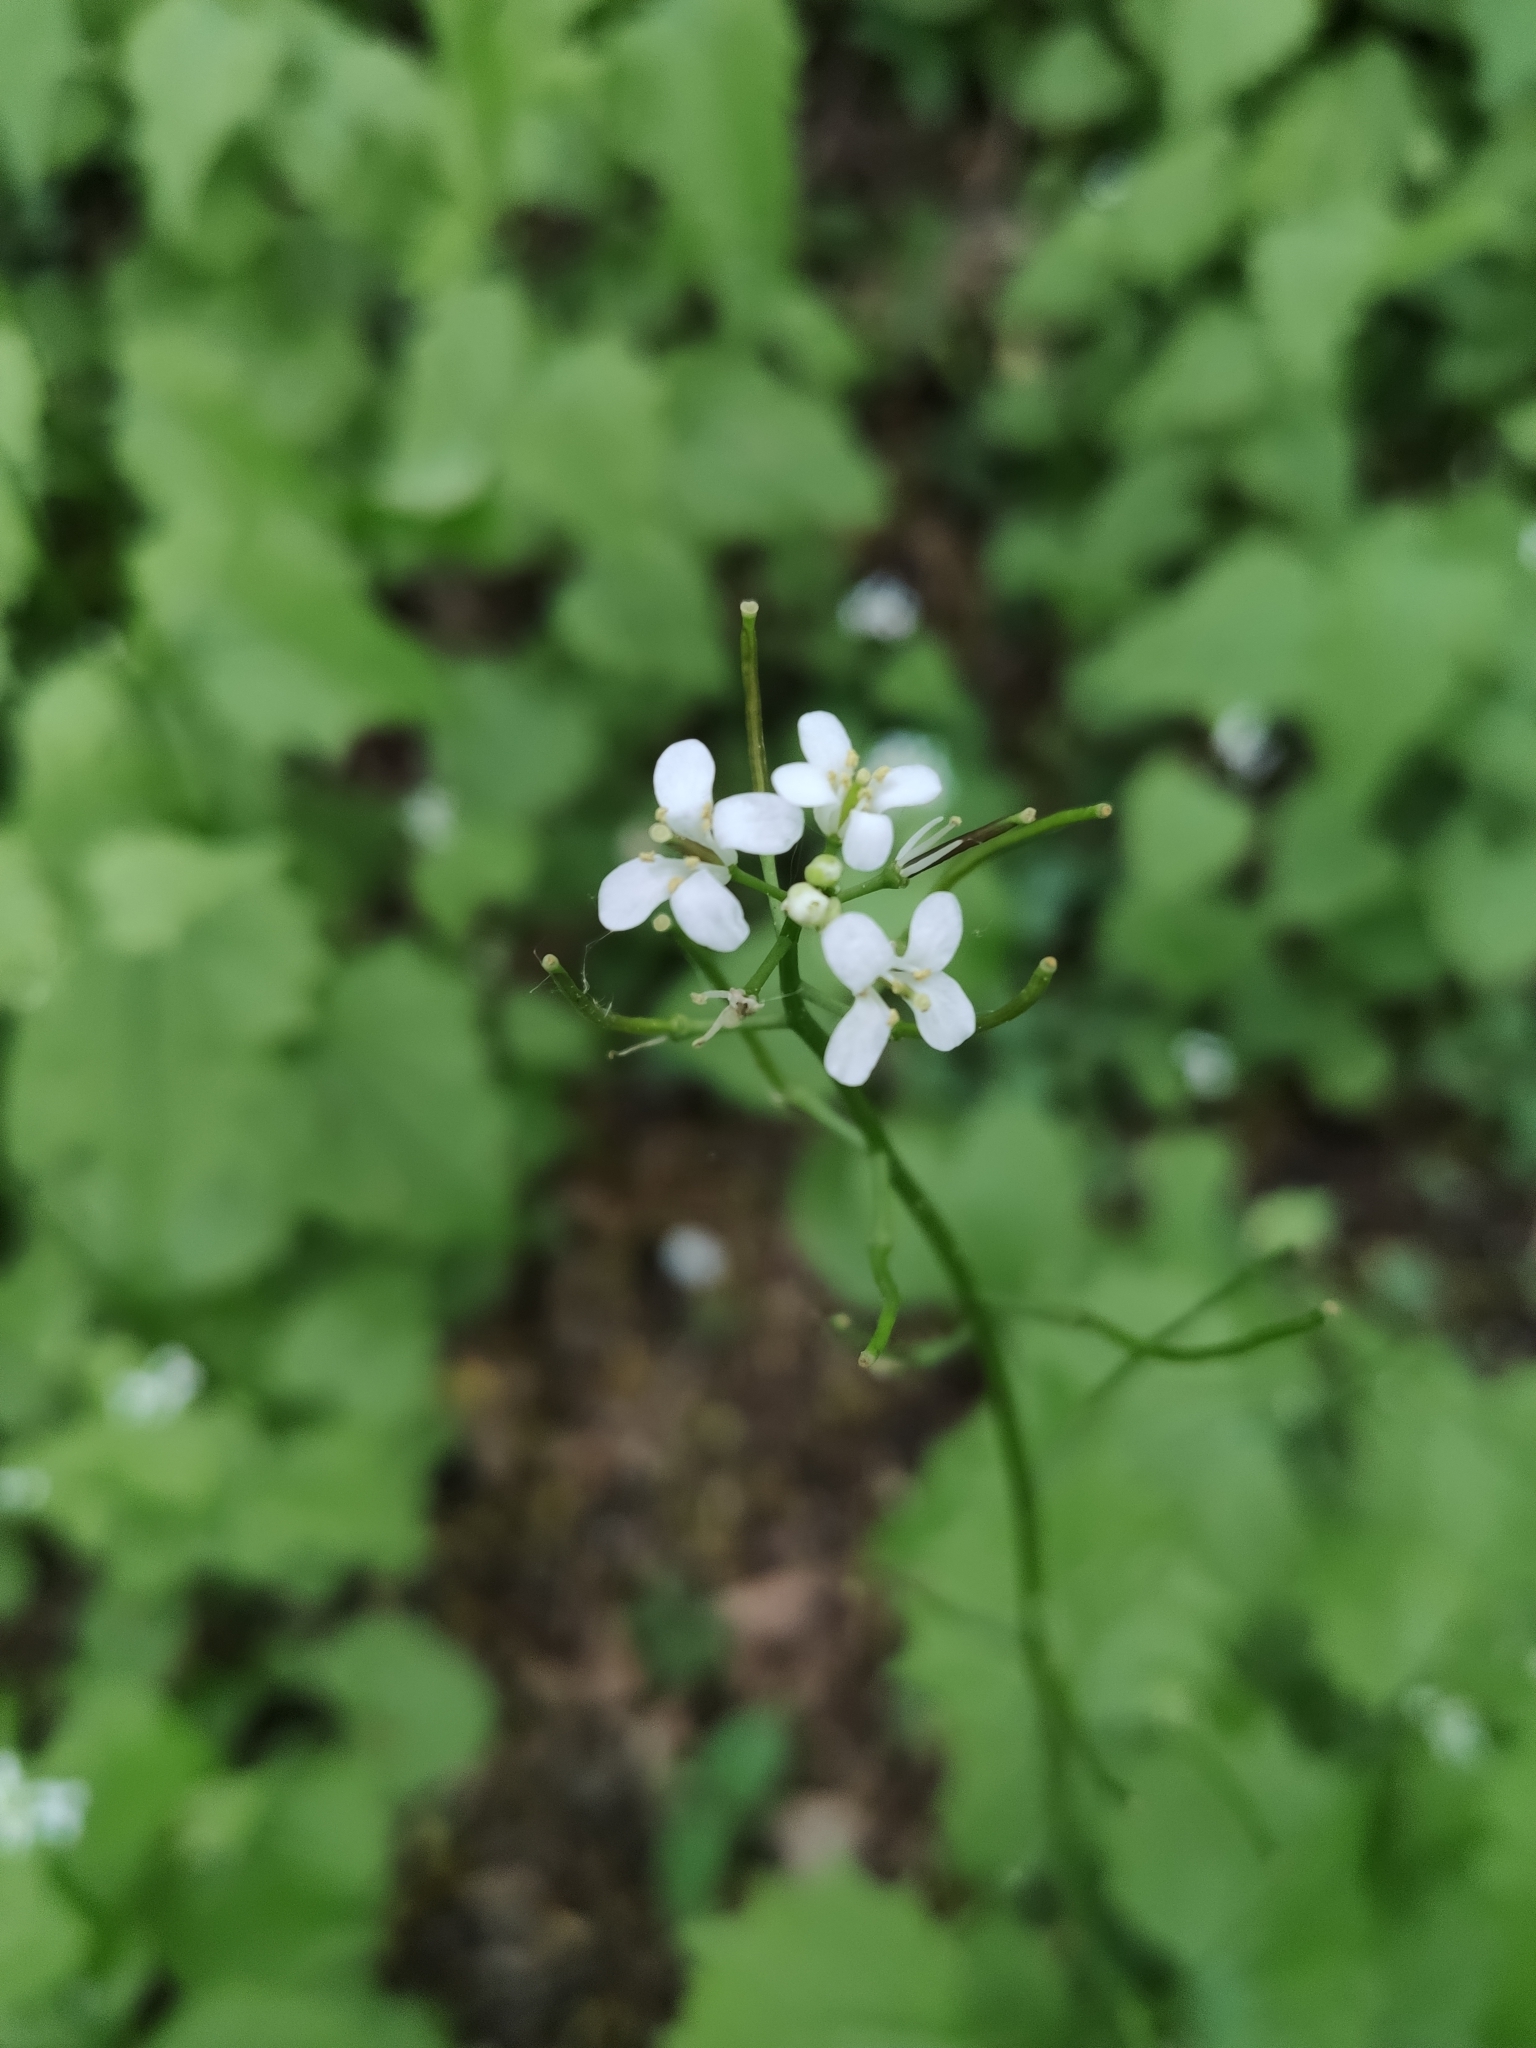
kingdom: Plantae
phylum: Tracheophyta
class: Magnoliopsida
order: Brassicales
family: Brassicaceae
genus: Alliaria
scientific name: Alliaria petiolata
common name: Garlic mustard
